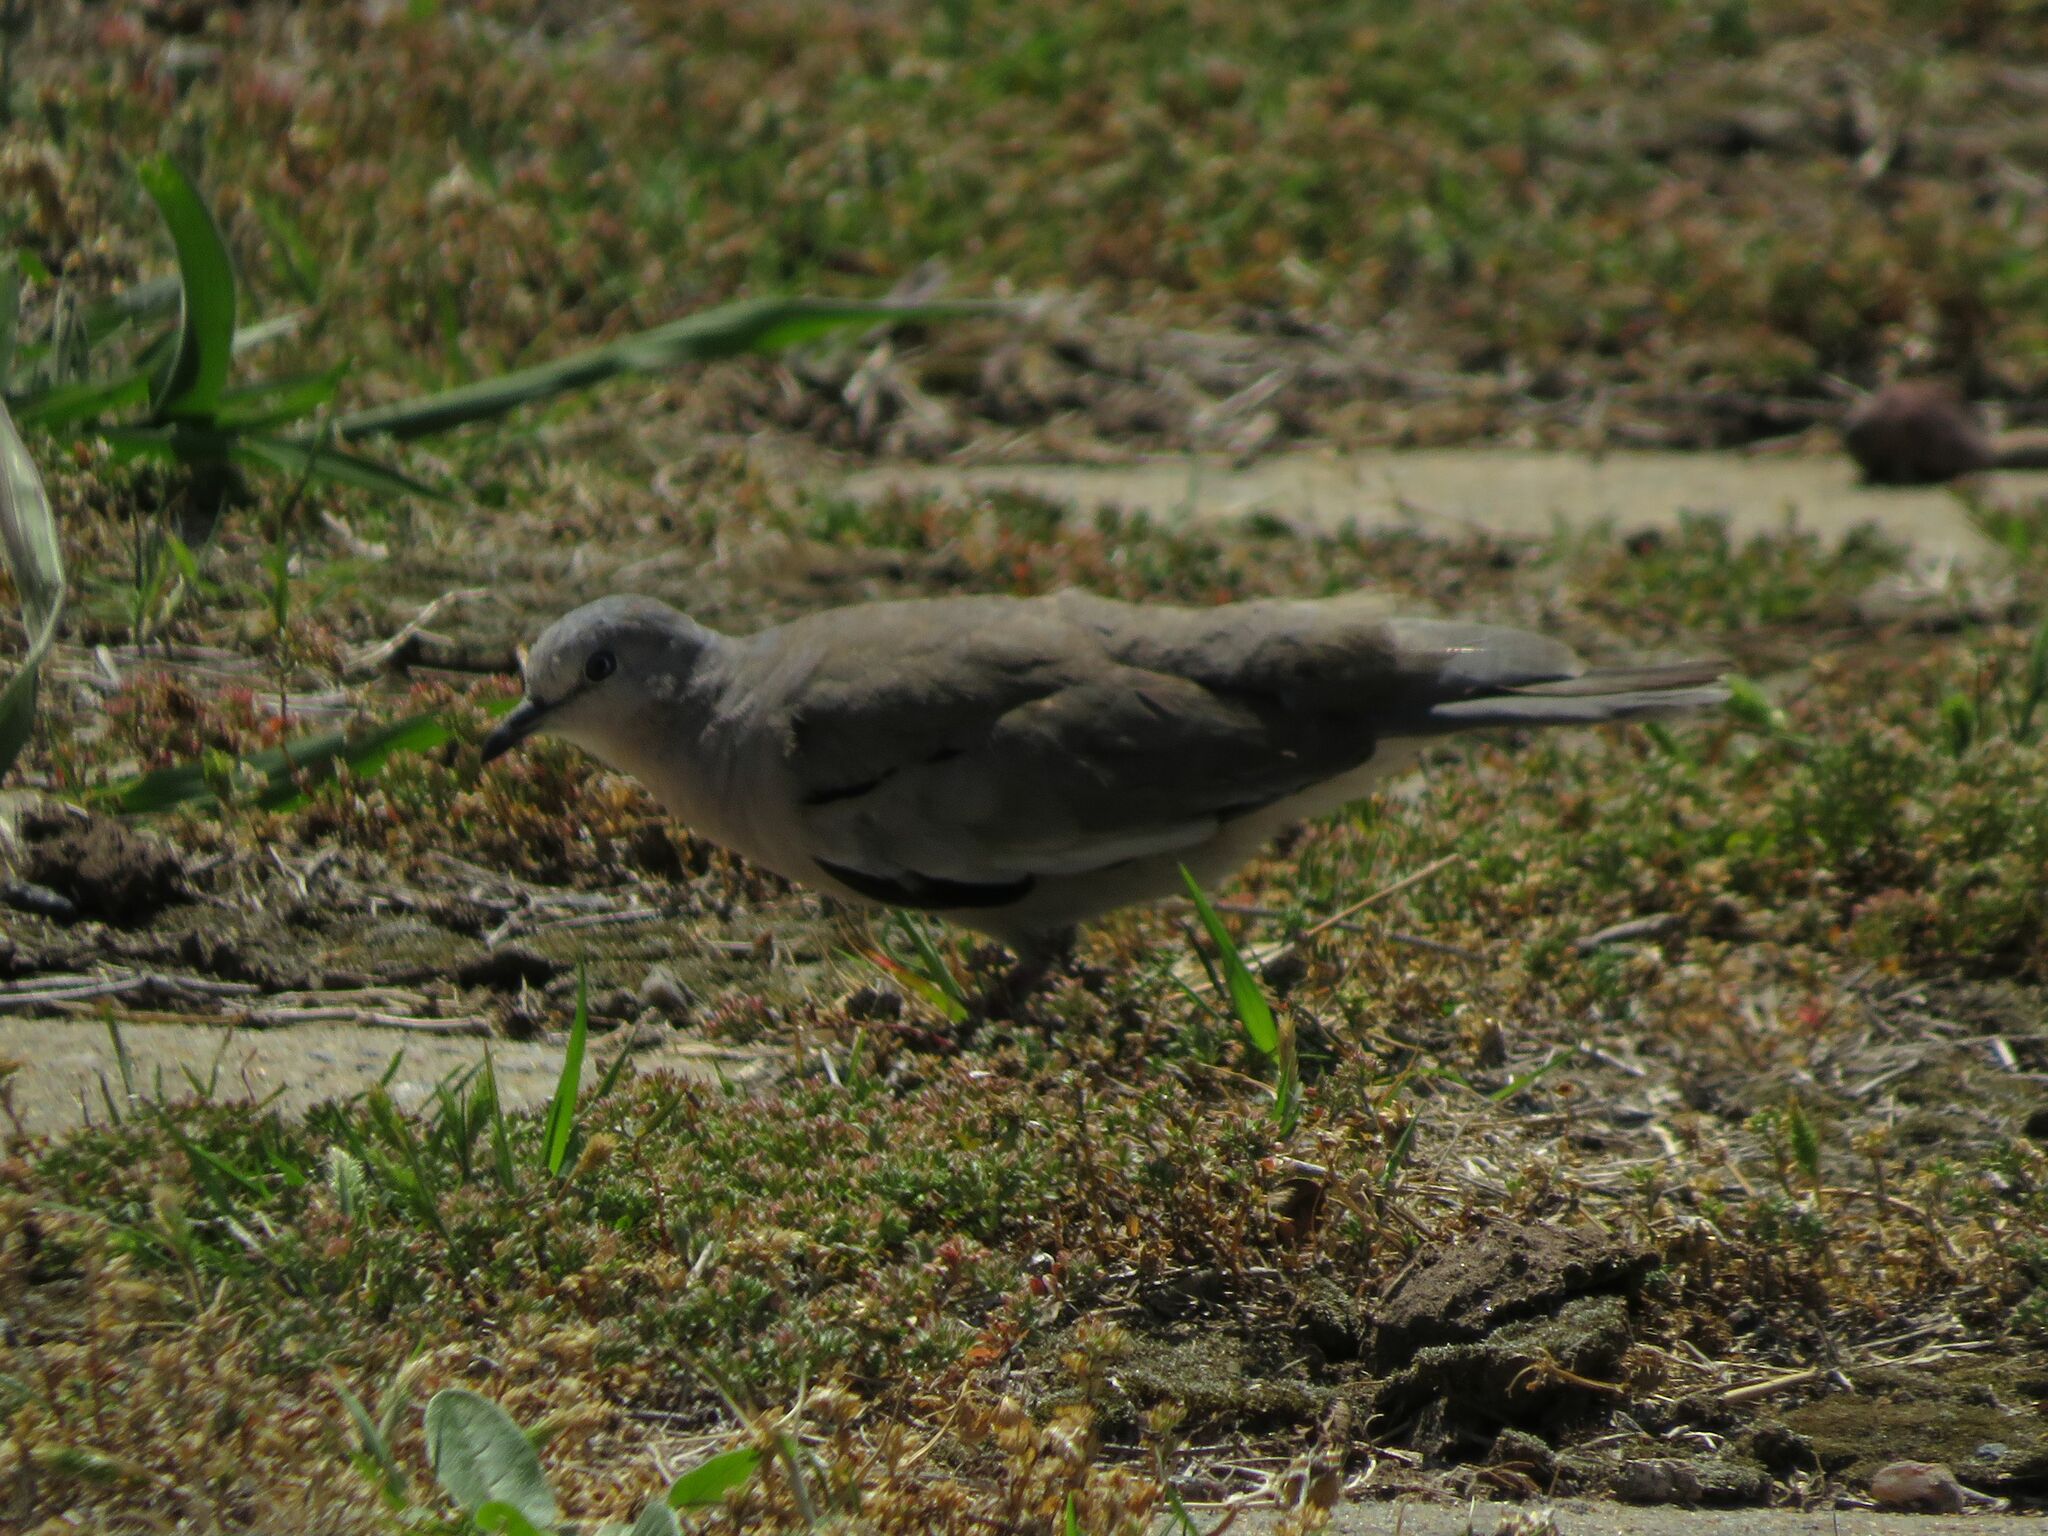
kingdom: Animalia
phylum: Chordata
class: Aves
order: Columbiformes
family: Columbidae
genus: Columbina
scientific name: Columbina picui
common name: Picui ground dove
